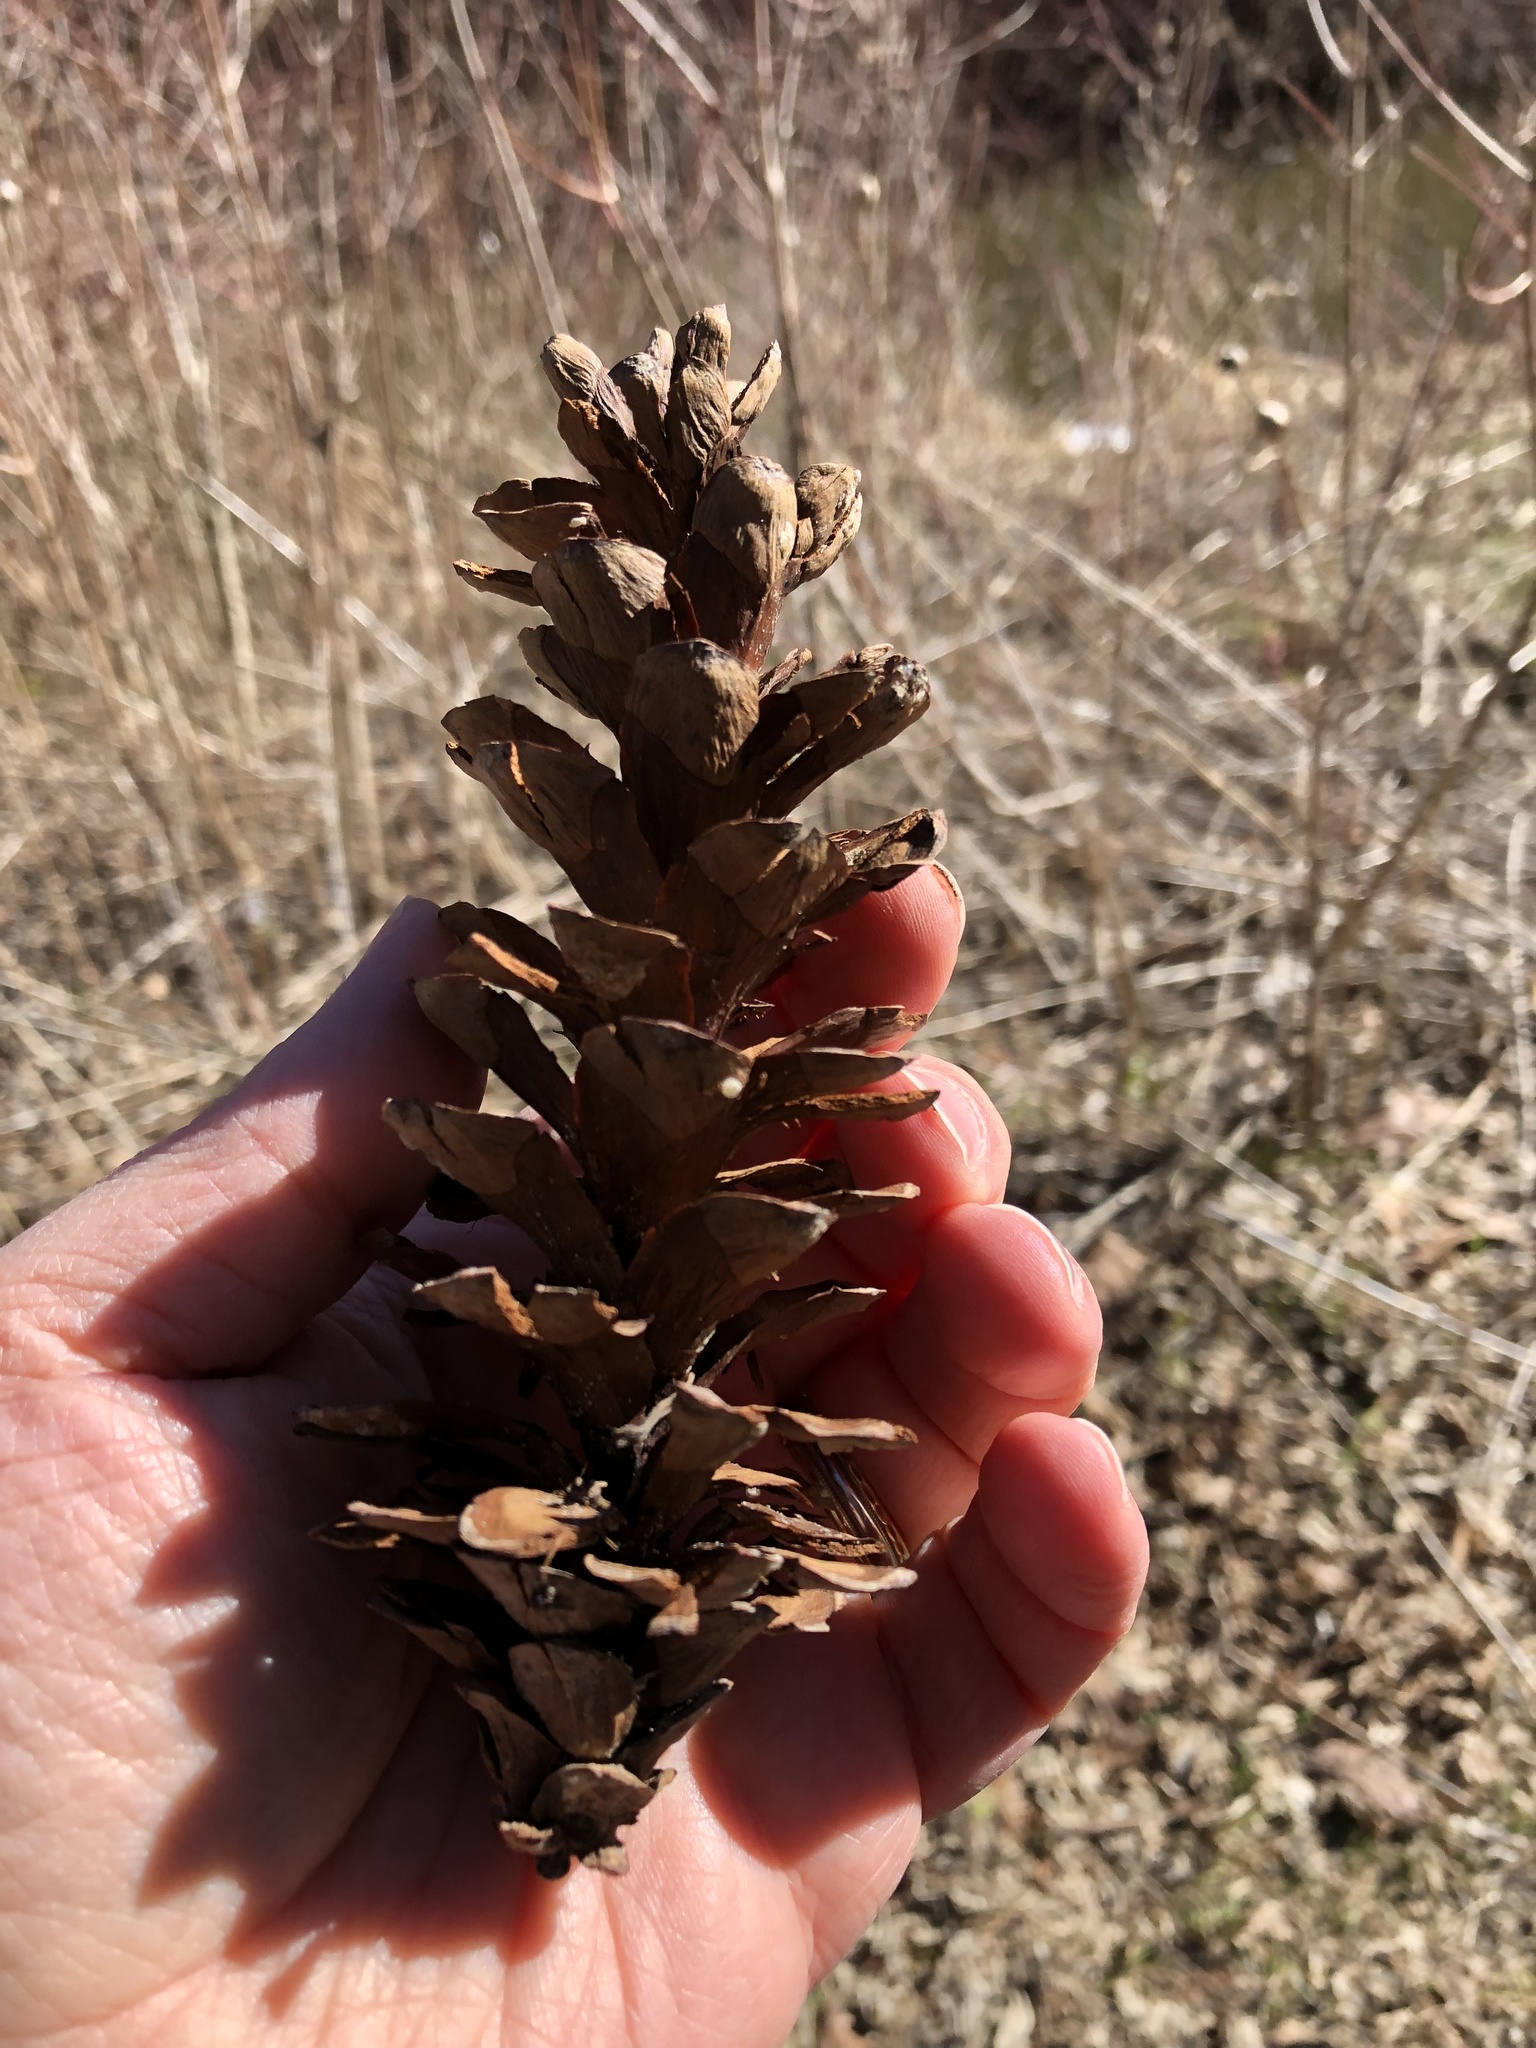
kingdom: Plantae
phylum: Tracheophyta
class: Pinopsida
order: Pinales
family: Pinaceae
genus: Pinus
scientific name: Pinus strobus
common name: Weymouth pine
